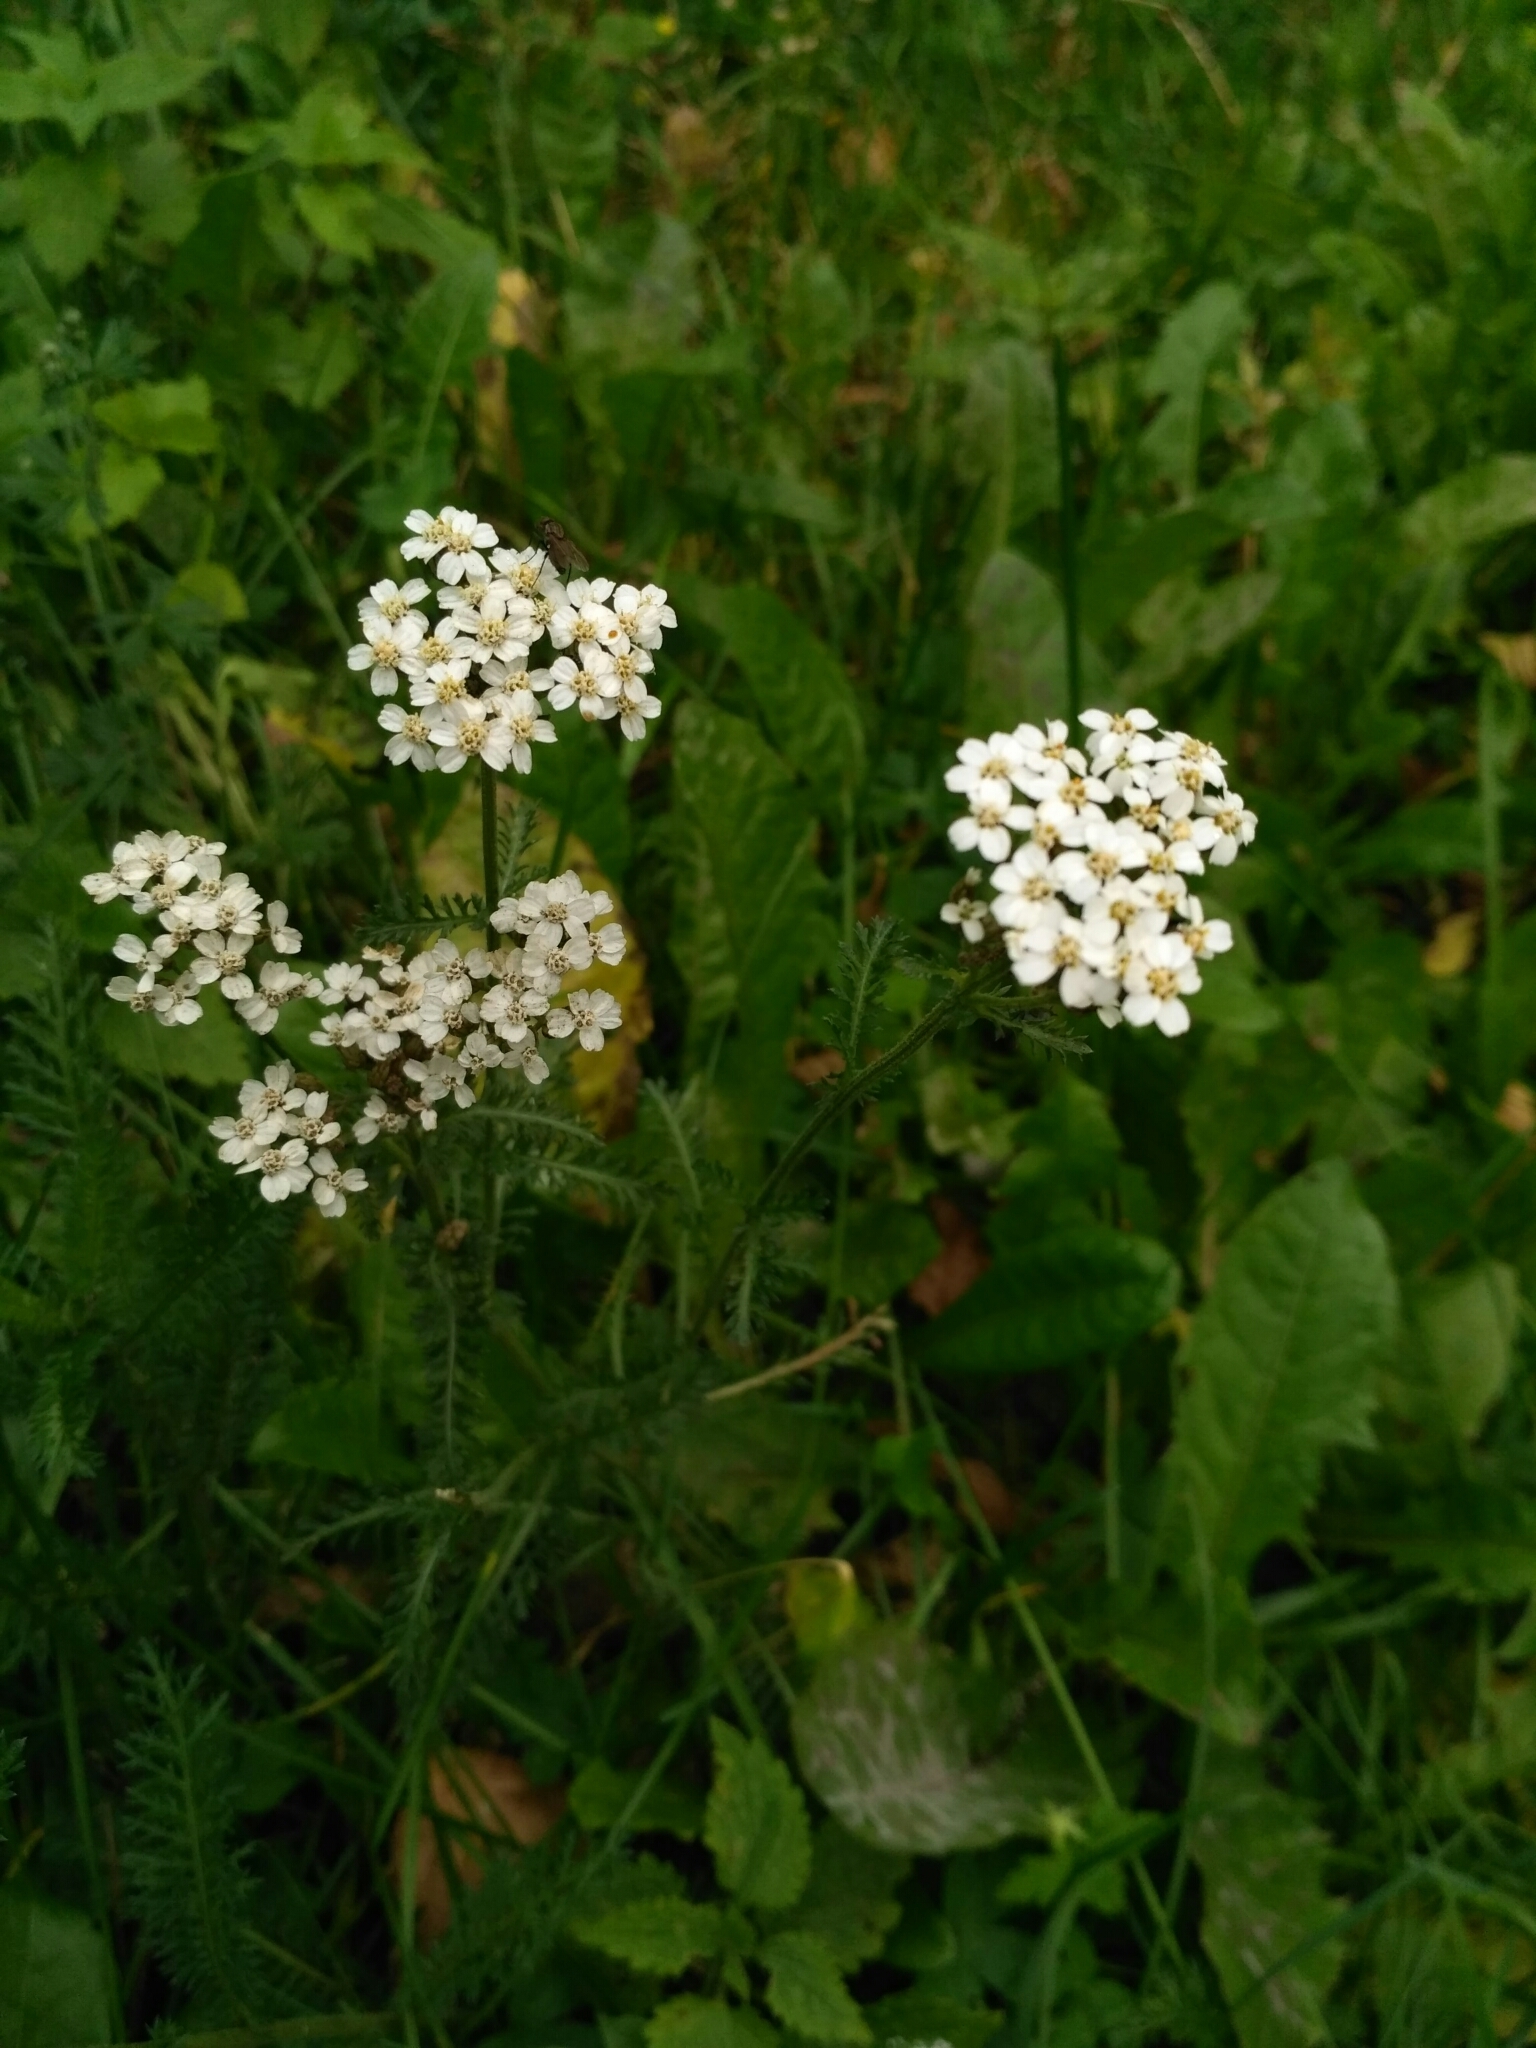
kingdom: Plantae
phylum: Tracheophyta
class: Magnoliopsida
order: Asterales
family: Asteraceae
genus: Achillea
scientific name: Achillea millefolium
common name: Yarrow
